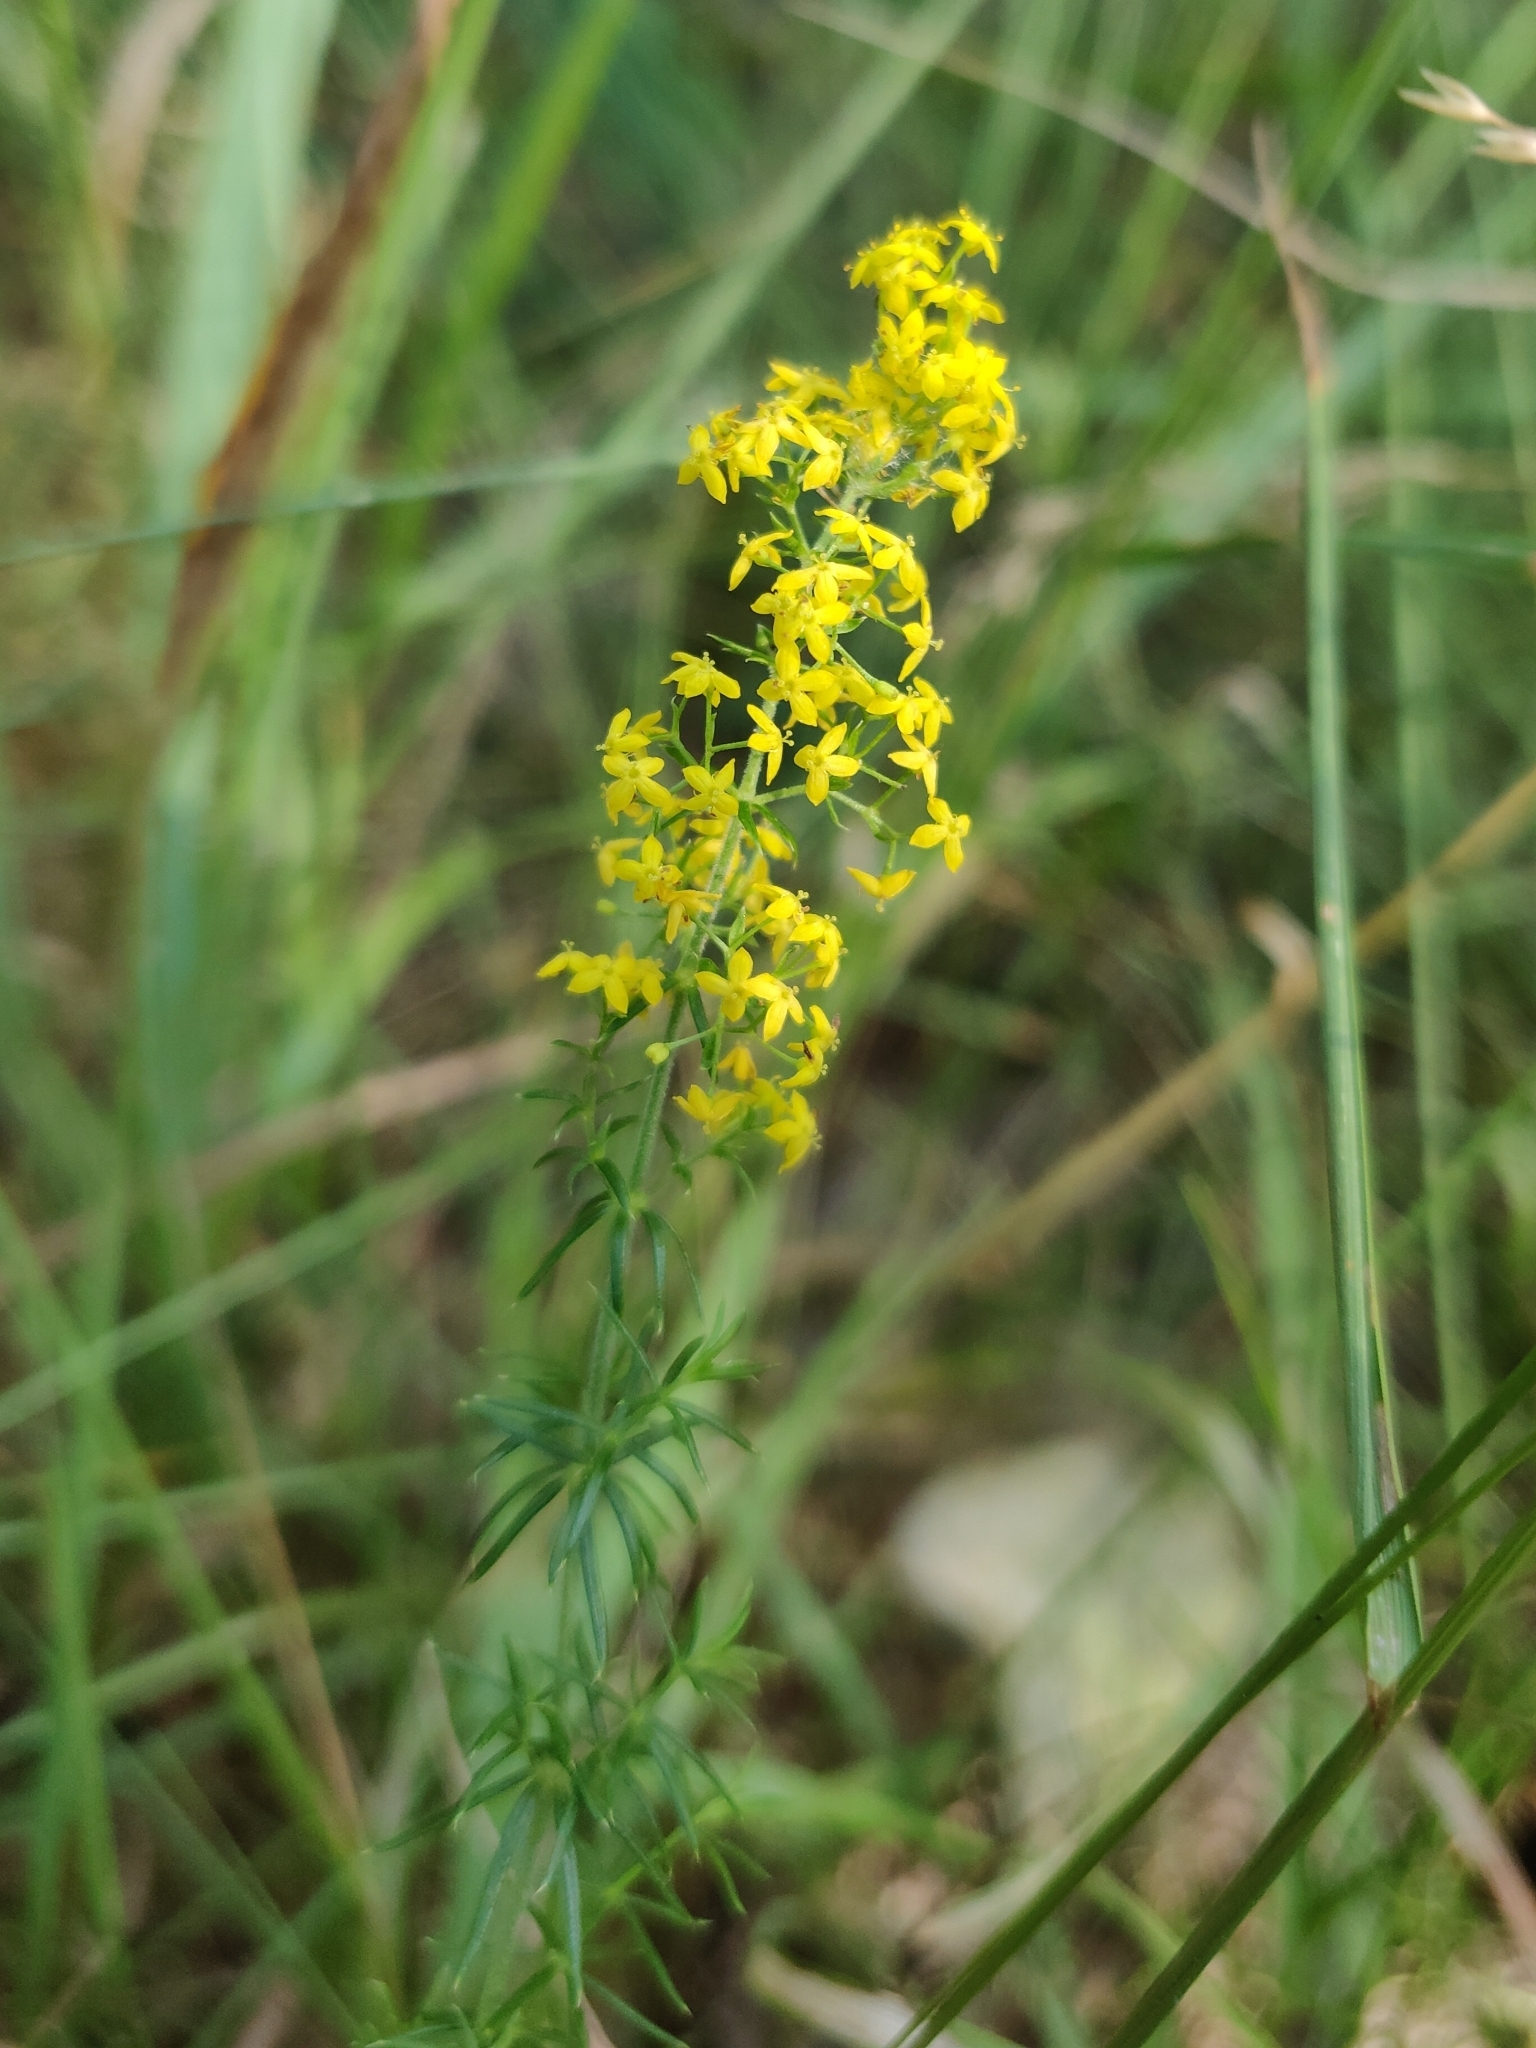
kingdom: Plantae
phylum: Tracheophyta
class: Magnoliopsida
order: Gentianales
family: Rubiaceae
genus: Galium
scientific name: Galium verum
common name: Lady's bedstraw
